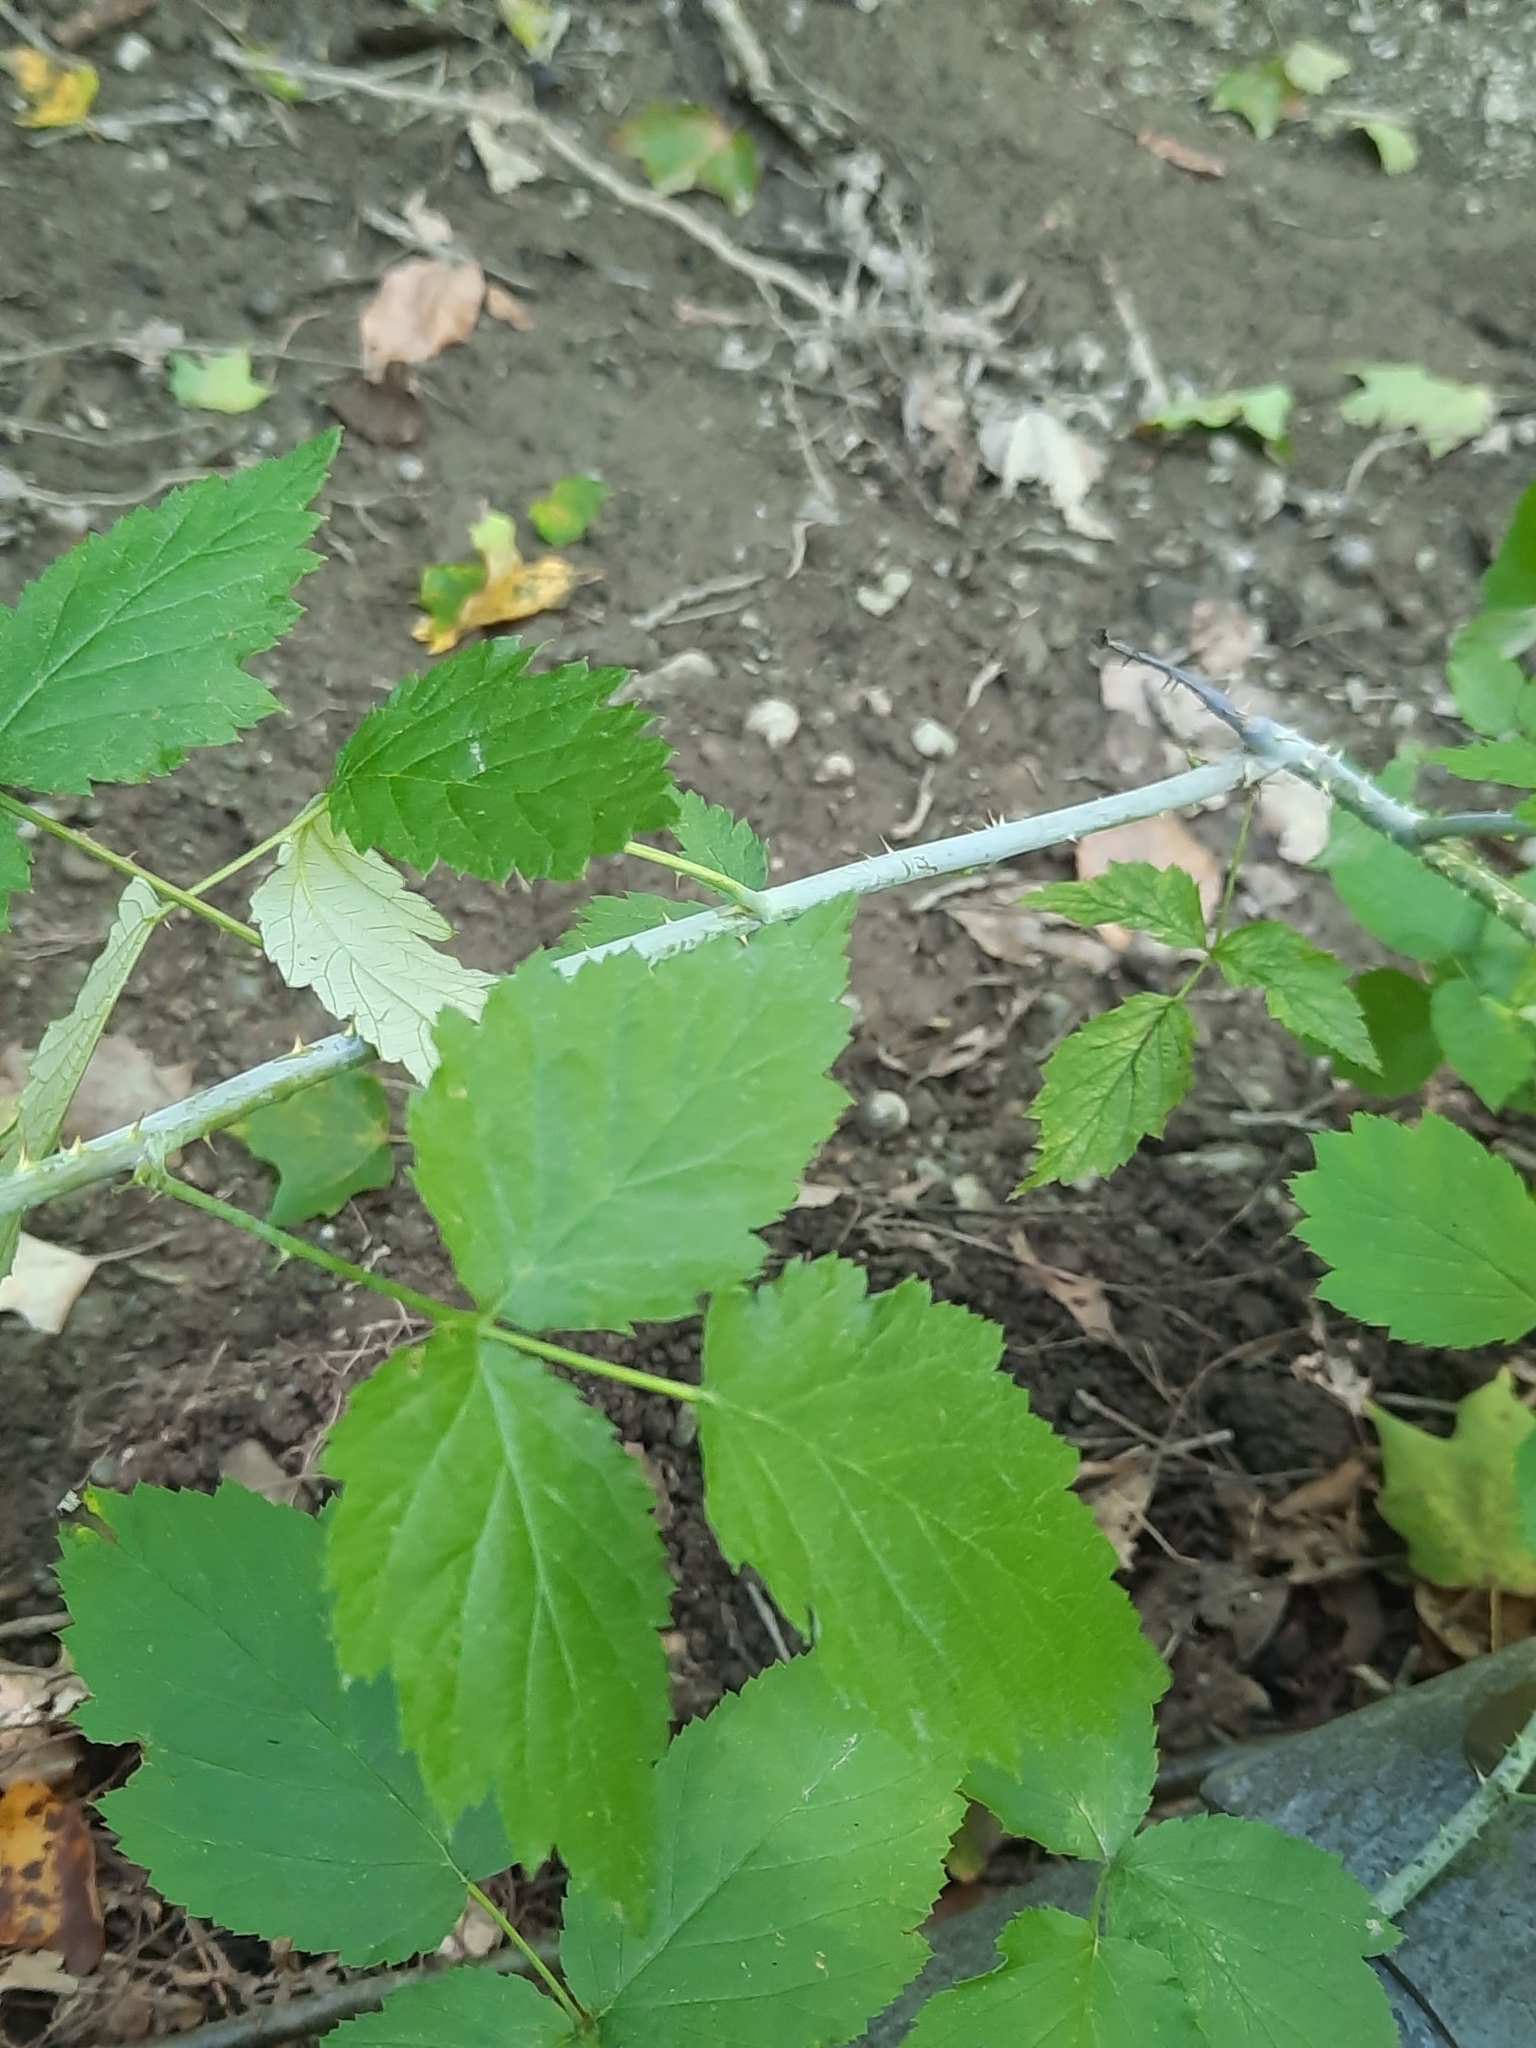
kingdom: Plantae
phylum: Tracheophyta
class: Magnoliopsida
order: Rosales
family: Rosaceae
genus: Rubus
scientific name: Rubus occidentalis
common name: Black raspberry
